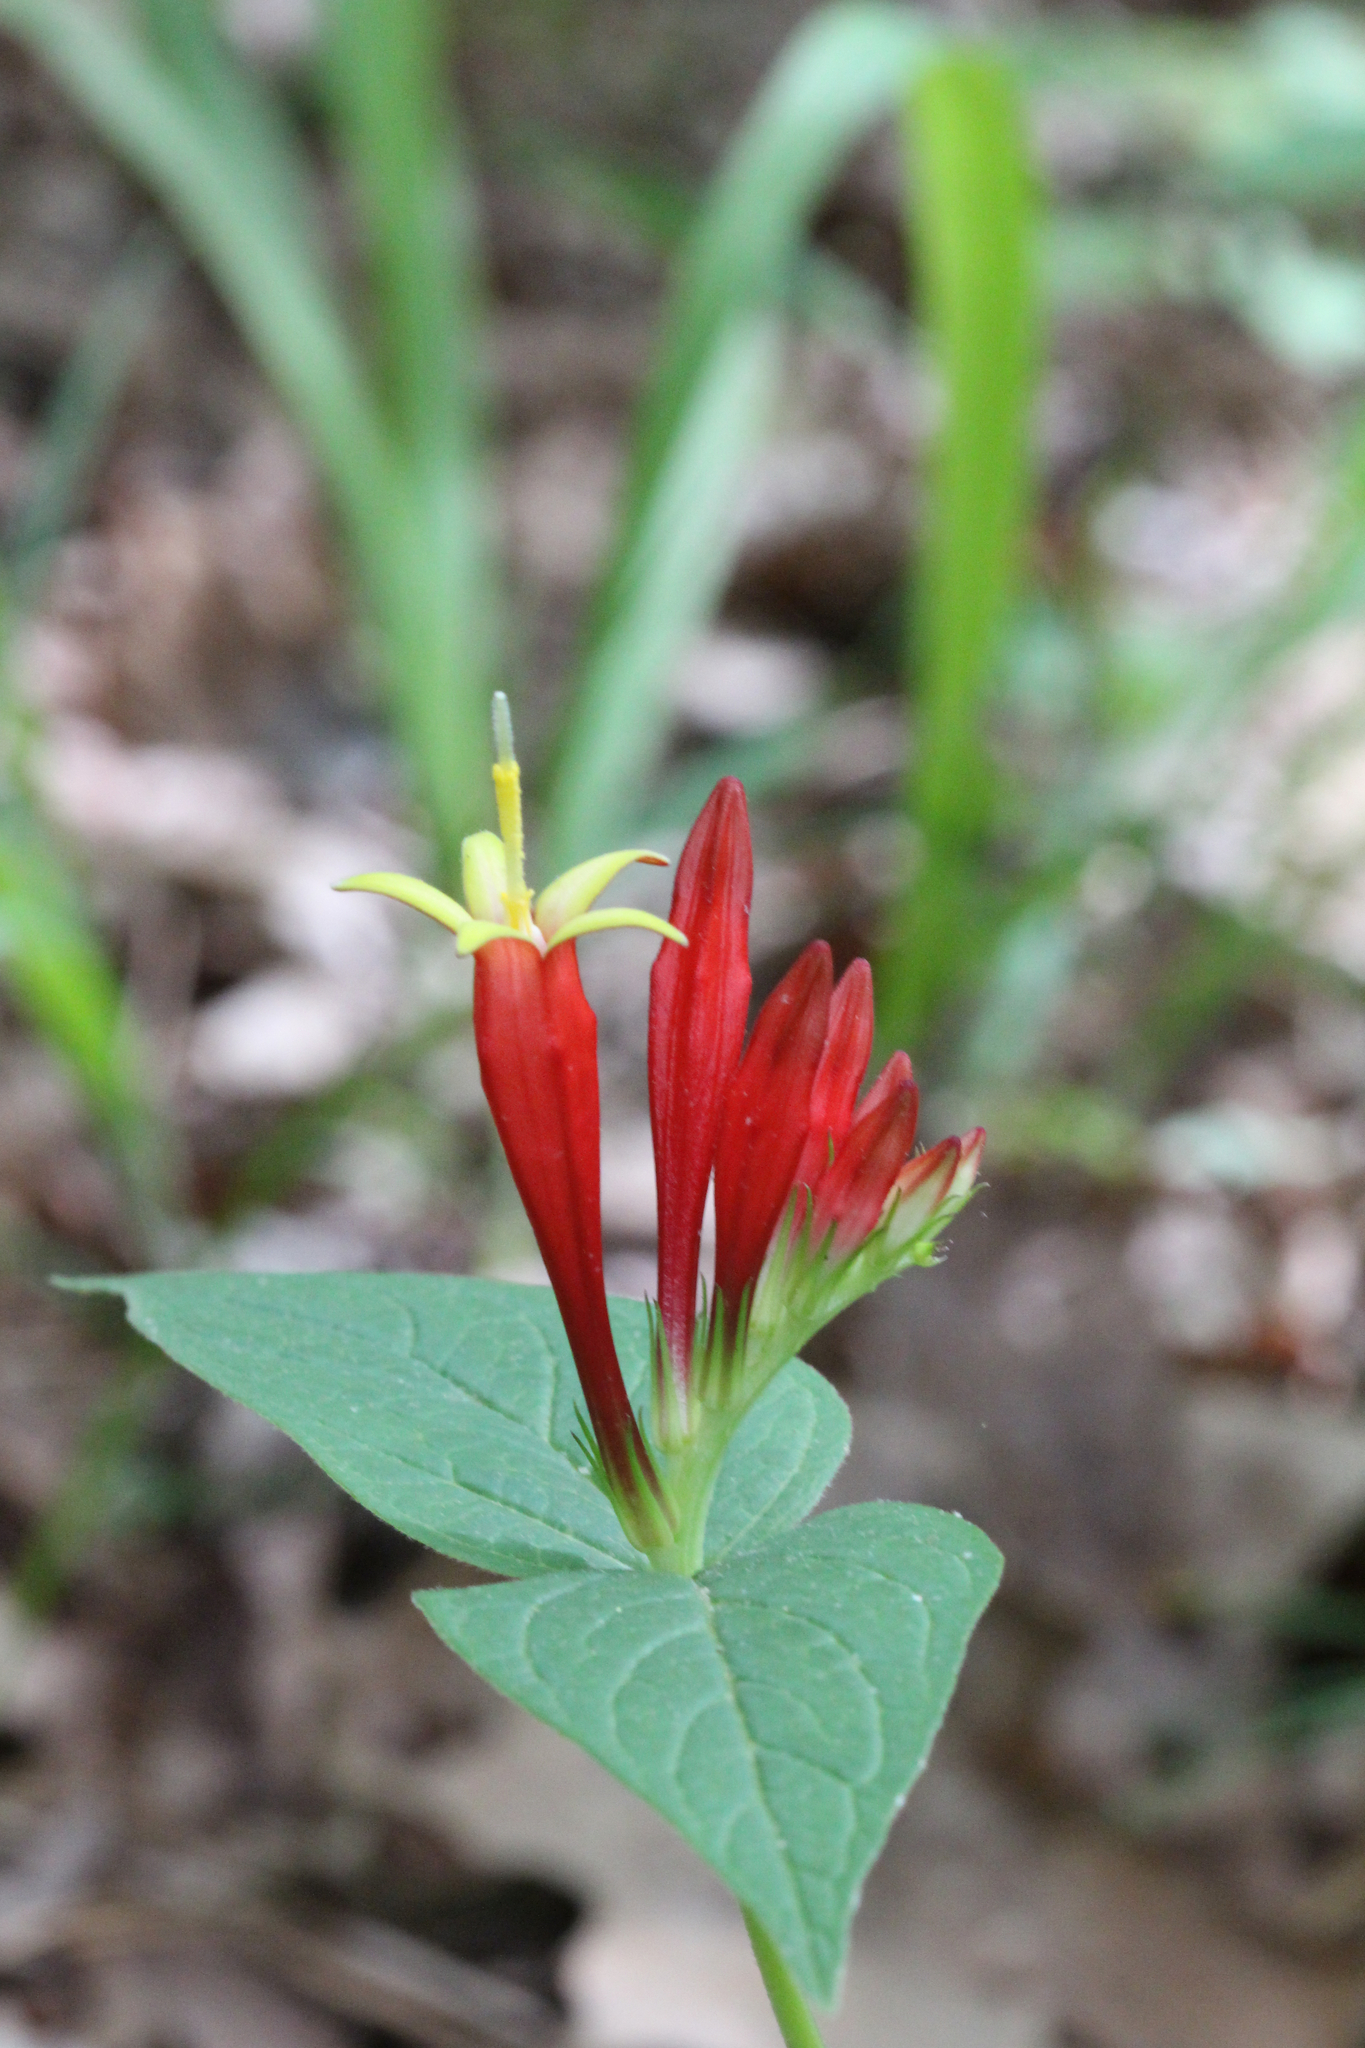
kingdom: Plantae
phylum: Tracheophyta
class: Magnoliopsida
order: Gentianales
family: Loganiaceae
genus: Spigelia
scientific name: Spigelia marilandica
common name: Indian-pink
